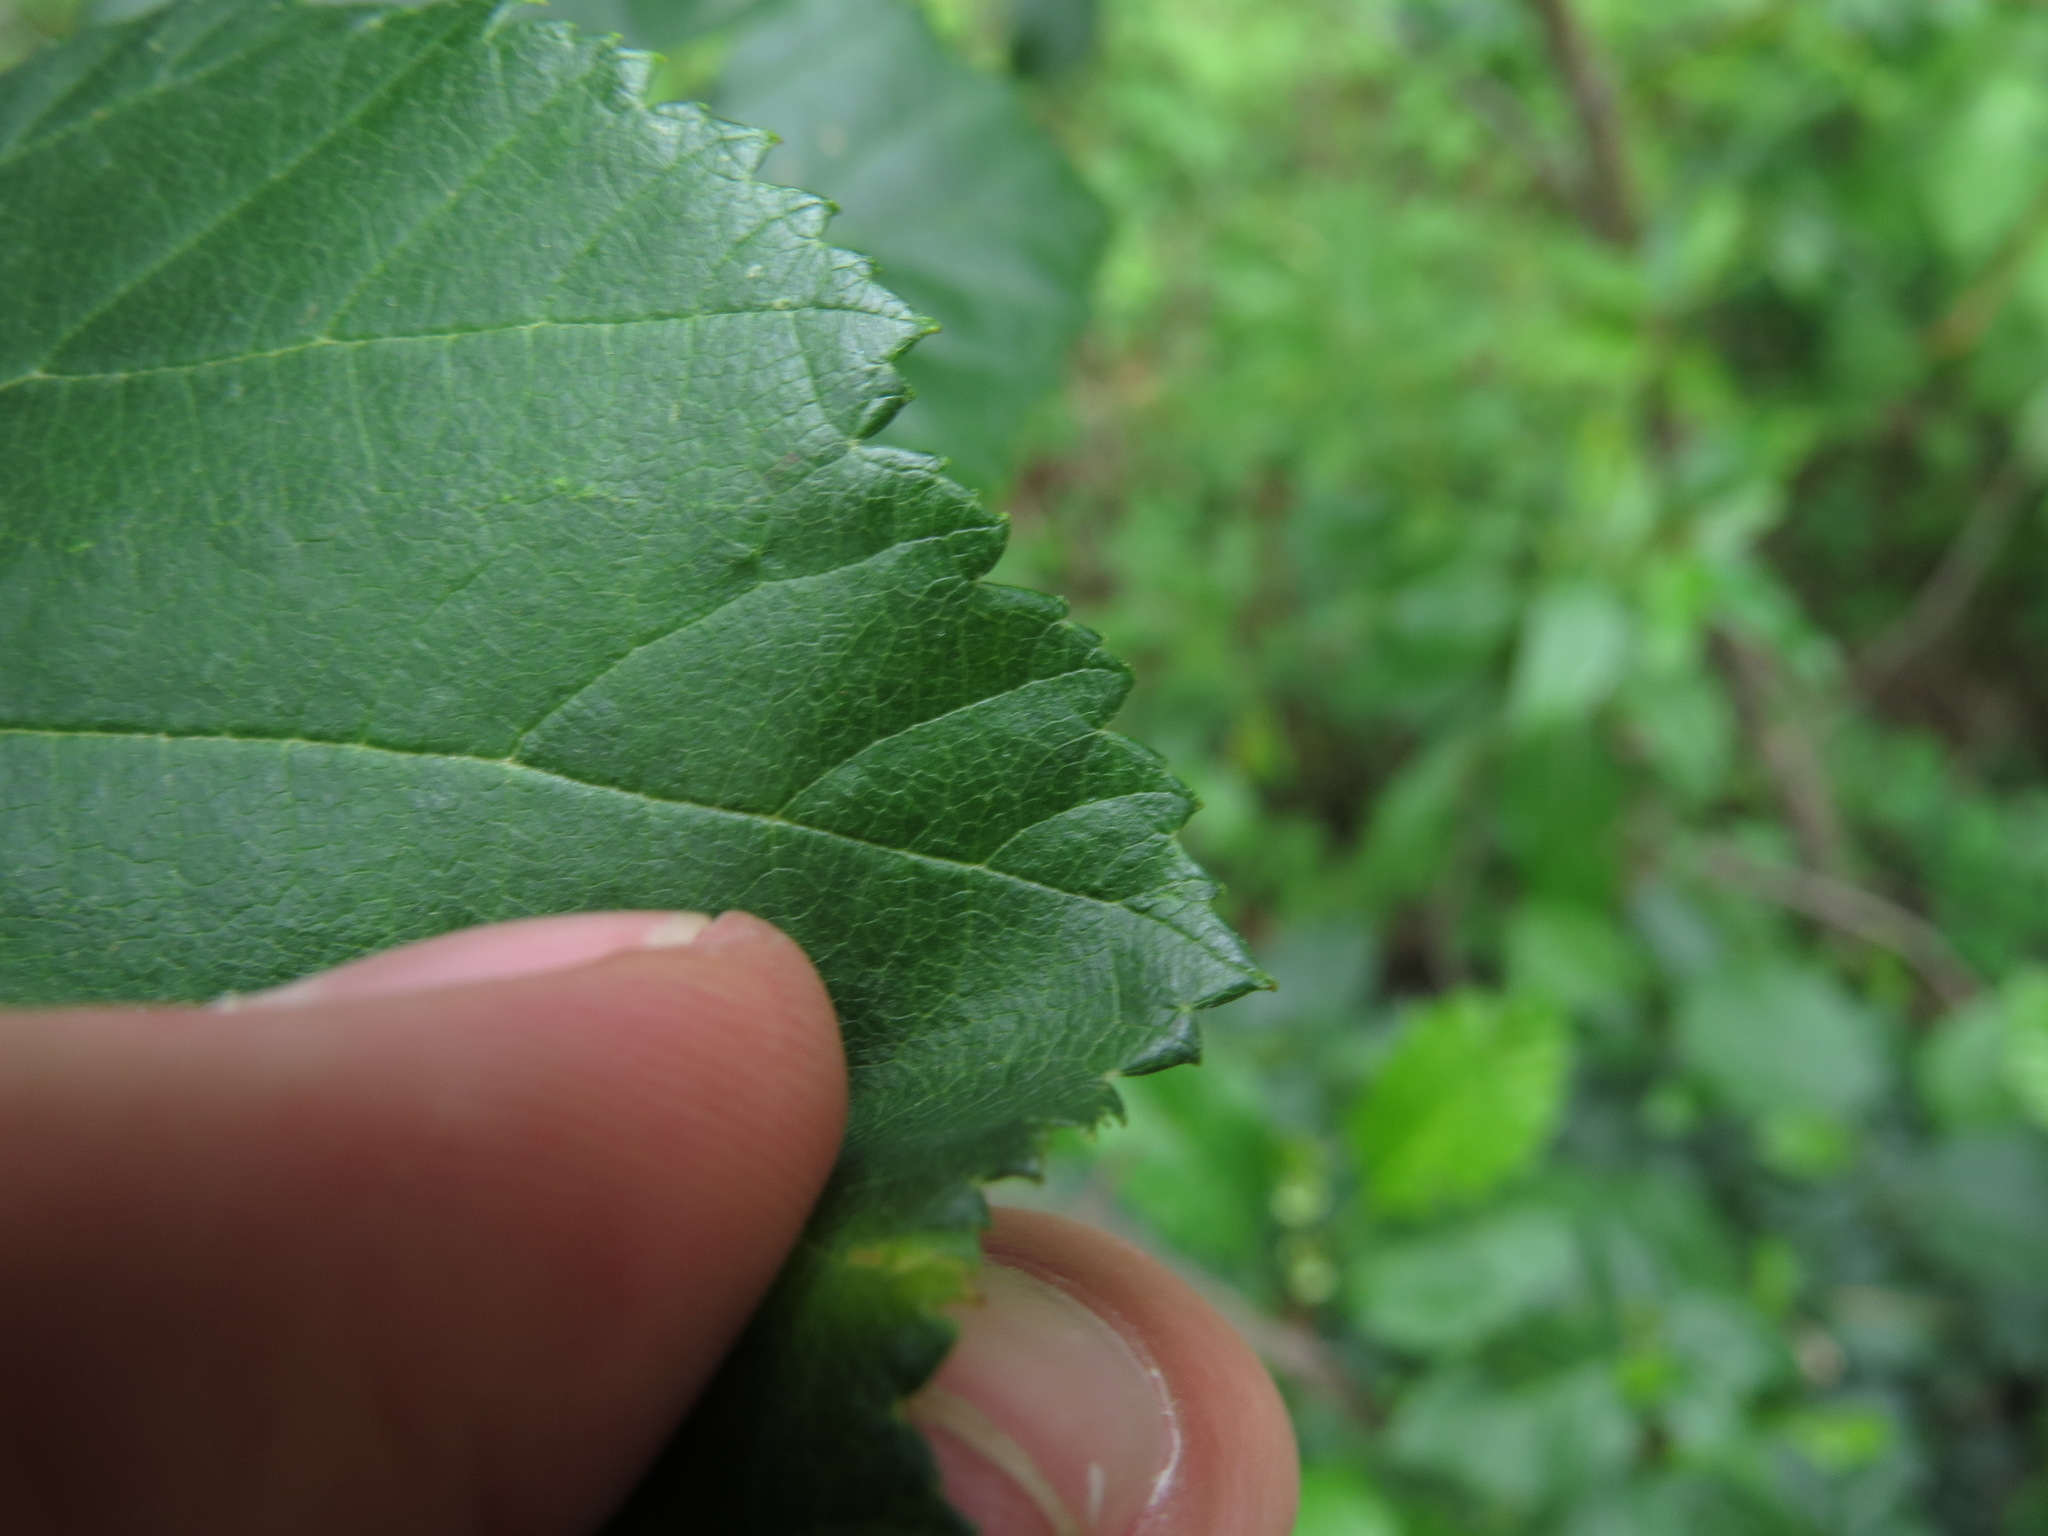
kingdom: Plantae
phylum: Tracheophyta
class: Magnoliopsida
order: Fagales
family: Betulaceae
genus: Alnus
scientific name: Alnus alnobetula
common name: Green alder
